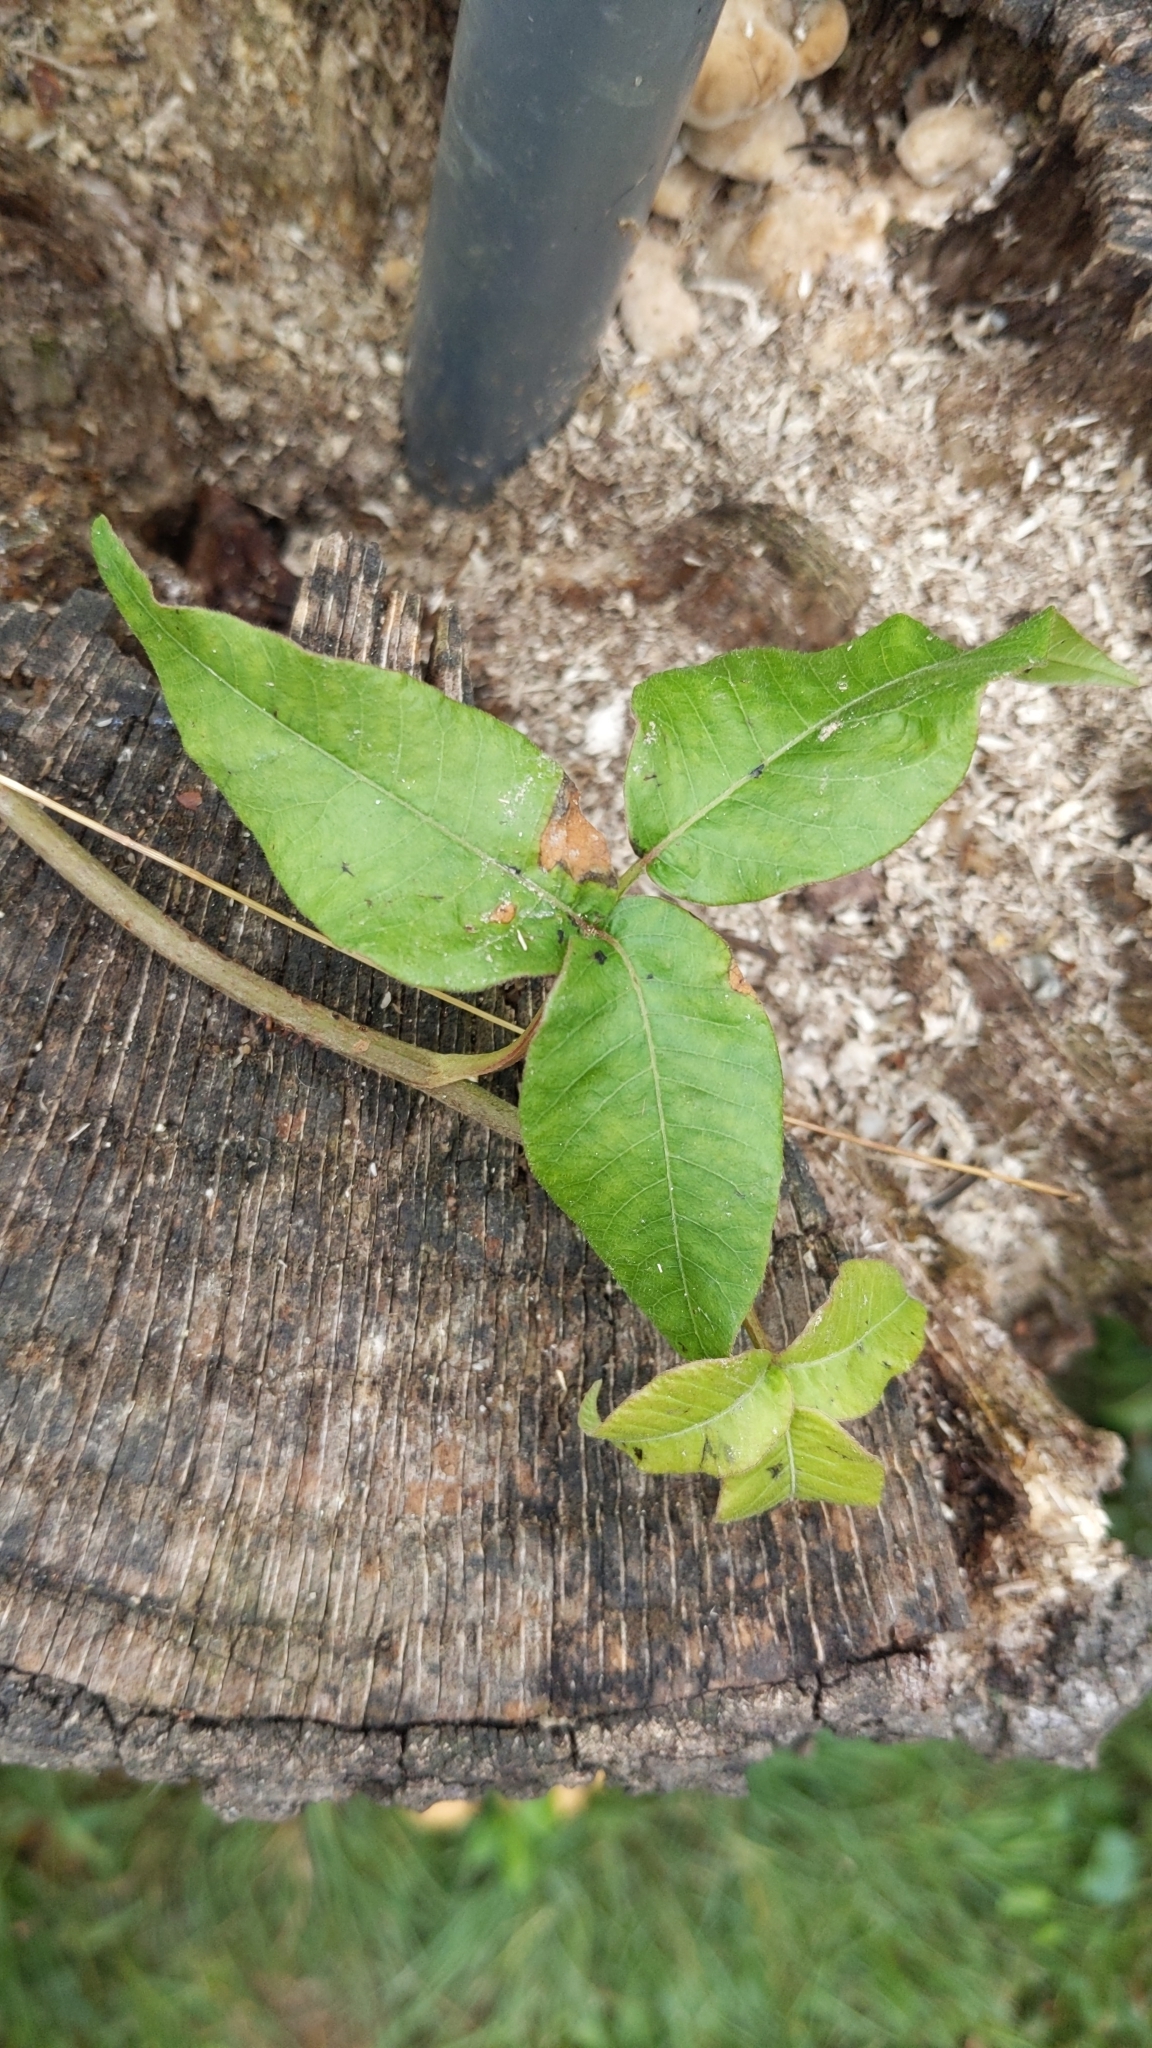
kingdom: Plantae
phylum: Tracheophyta
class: Magnoliopsida
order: Sapindales
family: Anacardiaceae
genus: Toxicodendron
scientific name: Toxicodendron radicans
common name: Poison ivy
